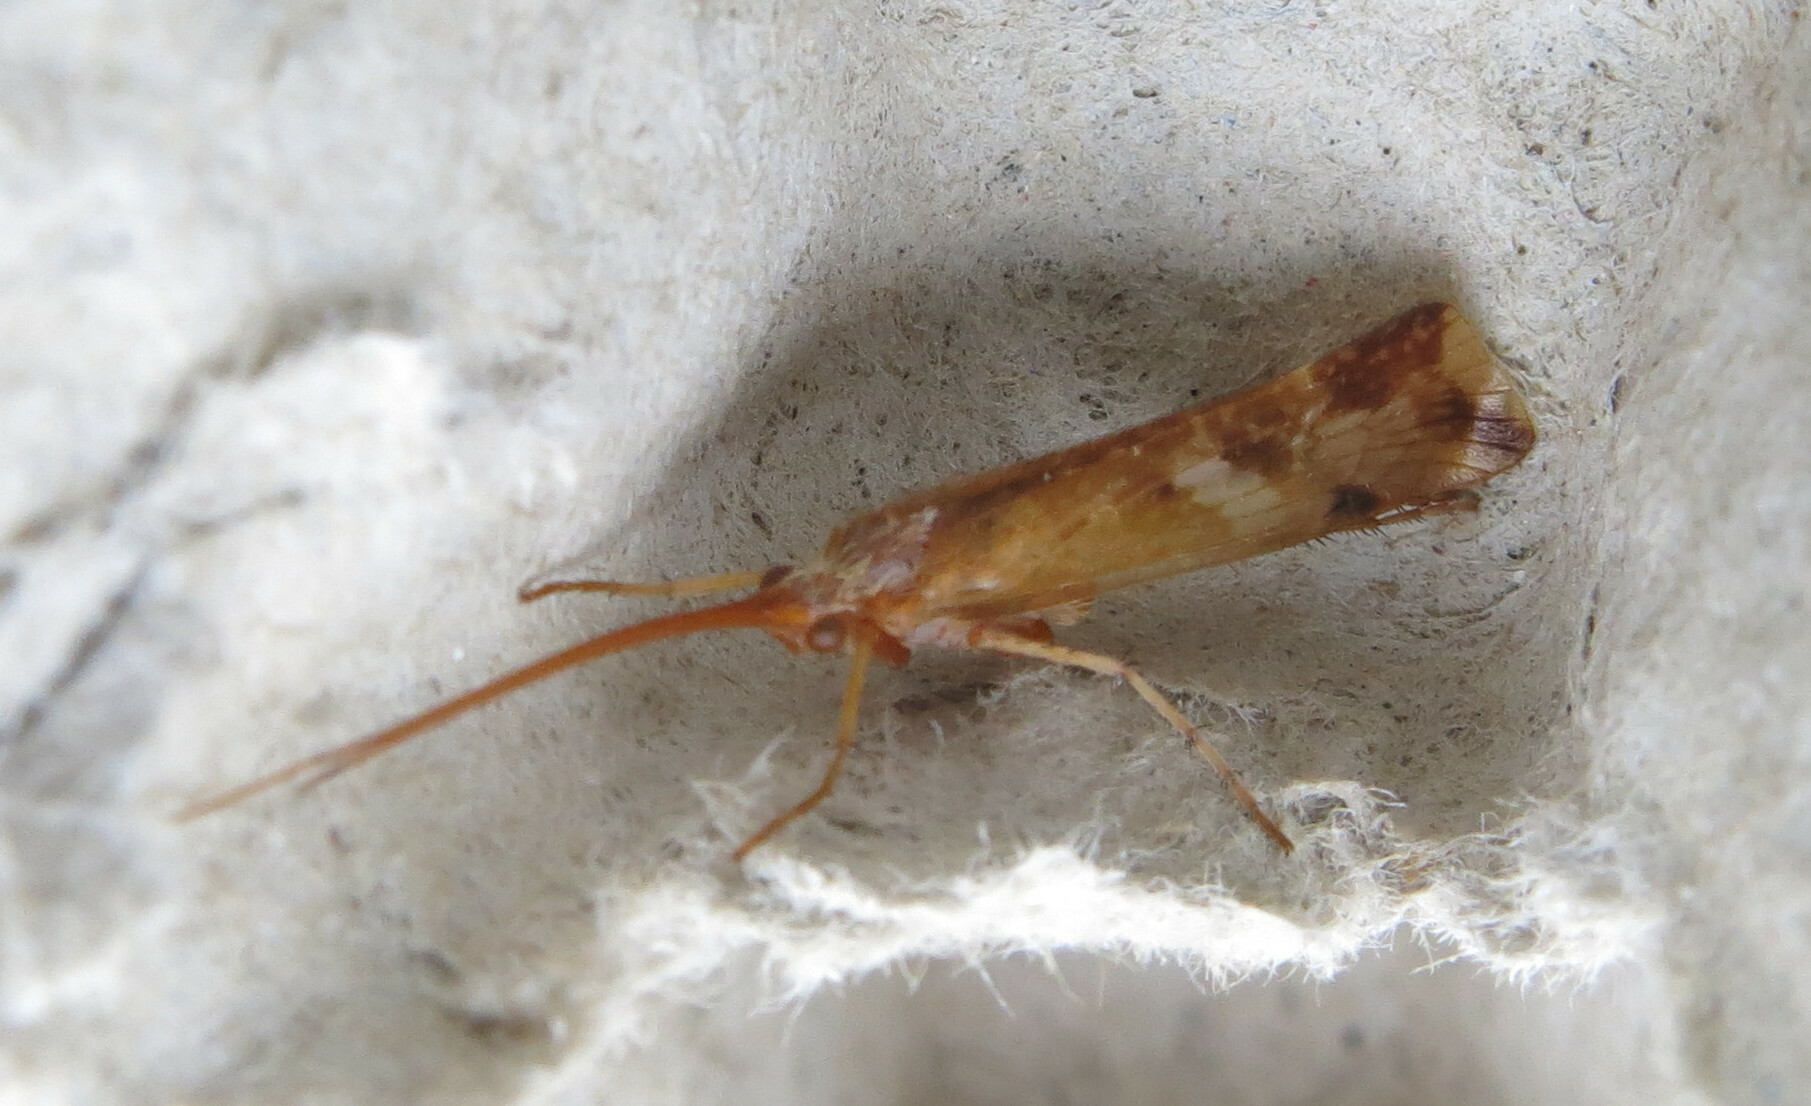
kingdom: Animalia
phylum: Arthropoda
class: Insecta
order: Trichoptera
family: Limnephilidae
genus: Limnephilus
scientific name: Limnephilus lunatus
